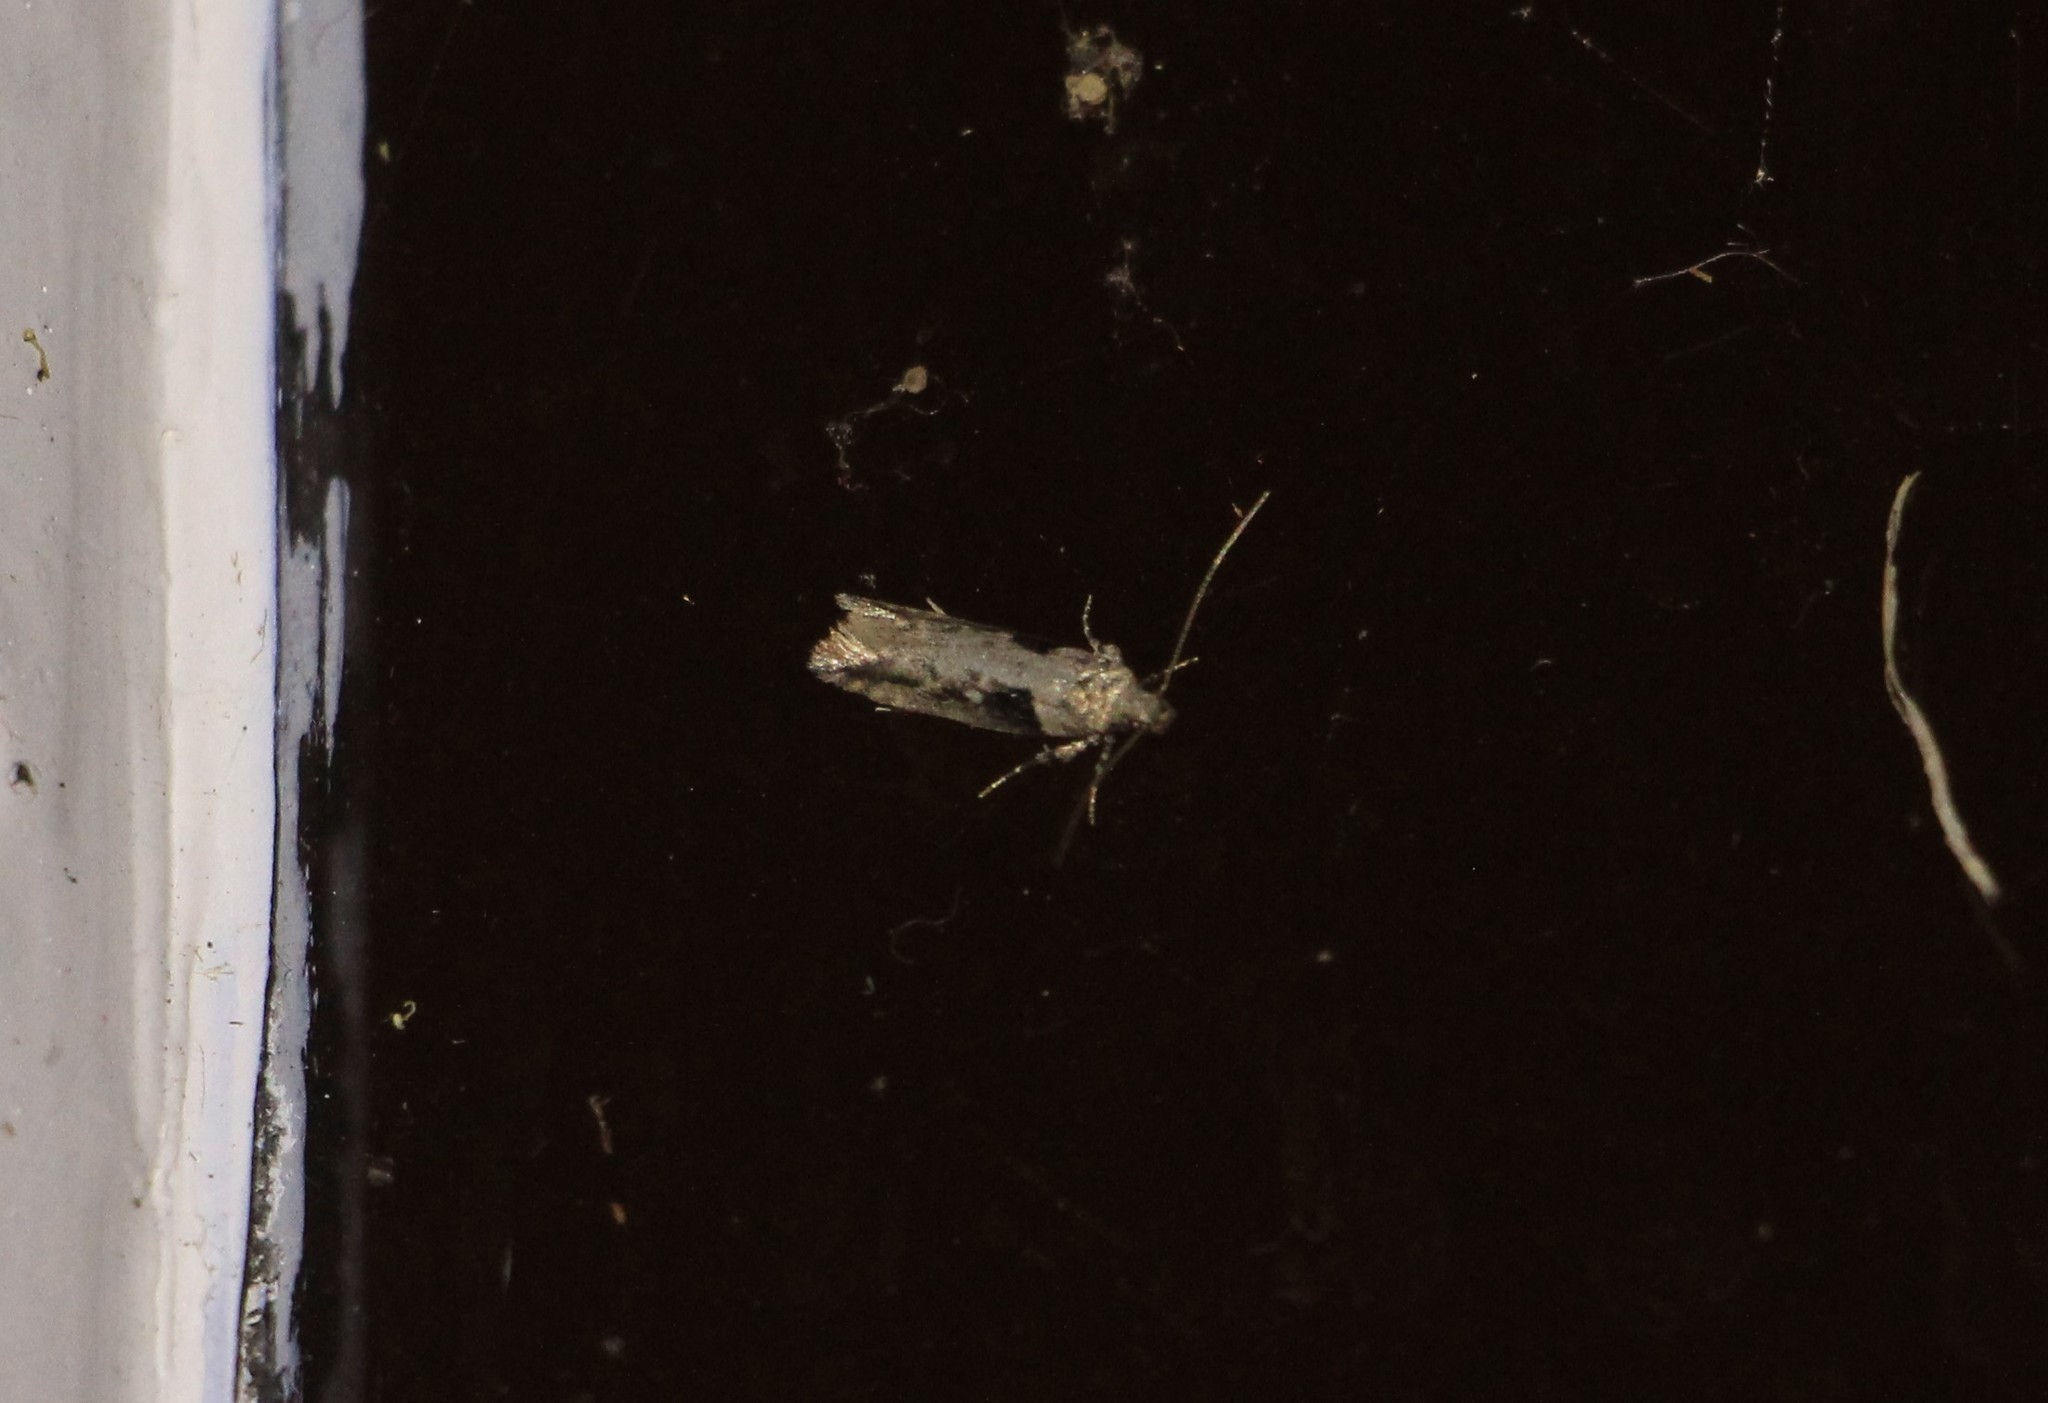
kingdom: Animalia
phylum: Arthropoda
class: Insecta
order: Lepidoptera
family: Gelechiidae
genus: Symmetrischema
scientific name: Symmetrischema tangolias
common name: Moth
